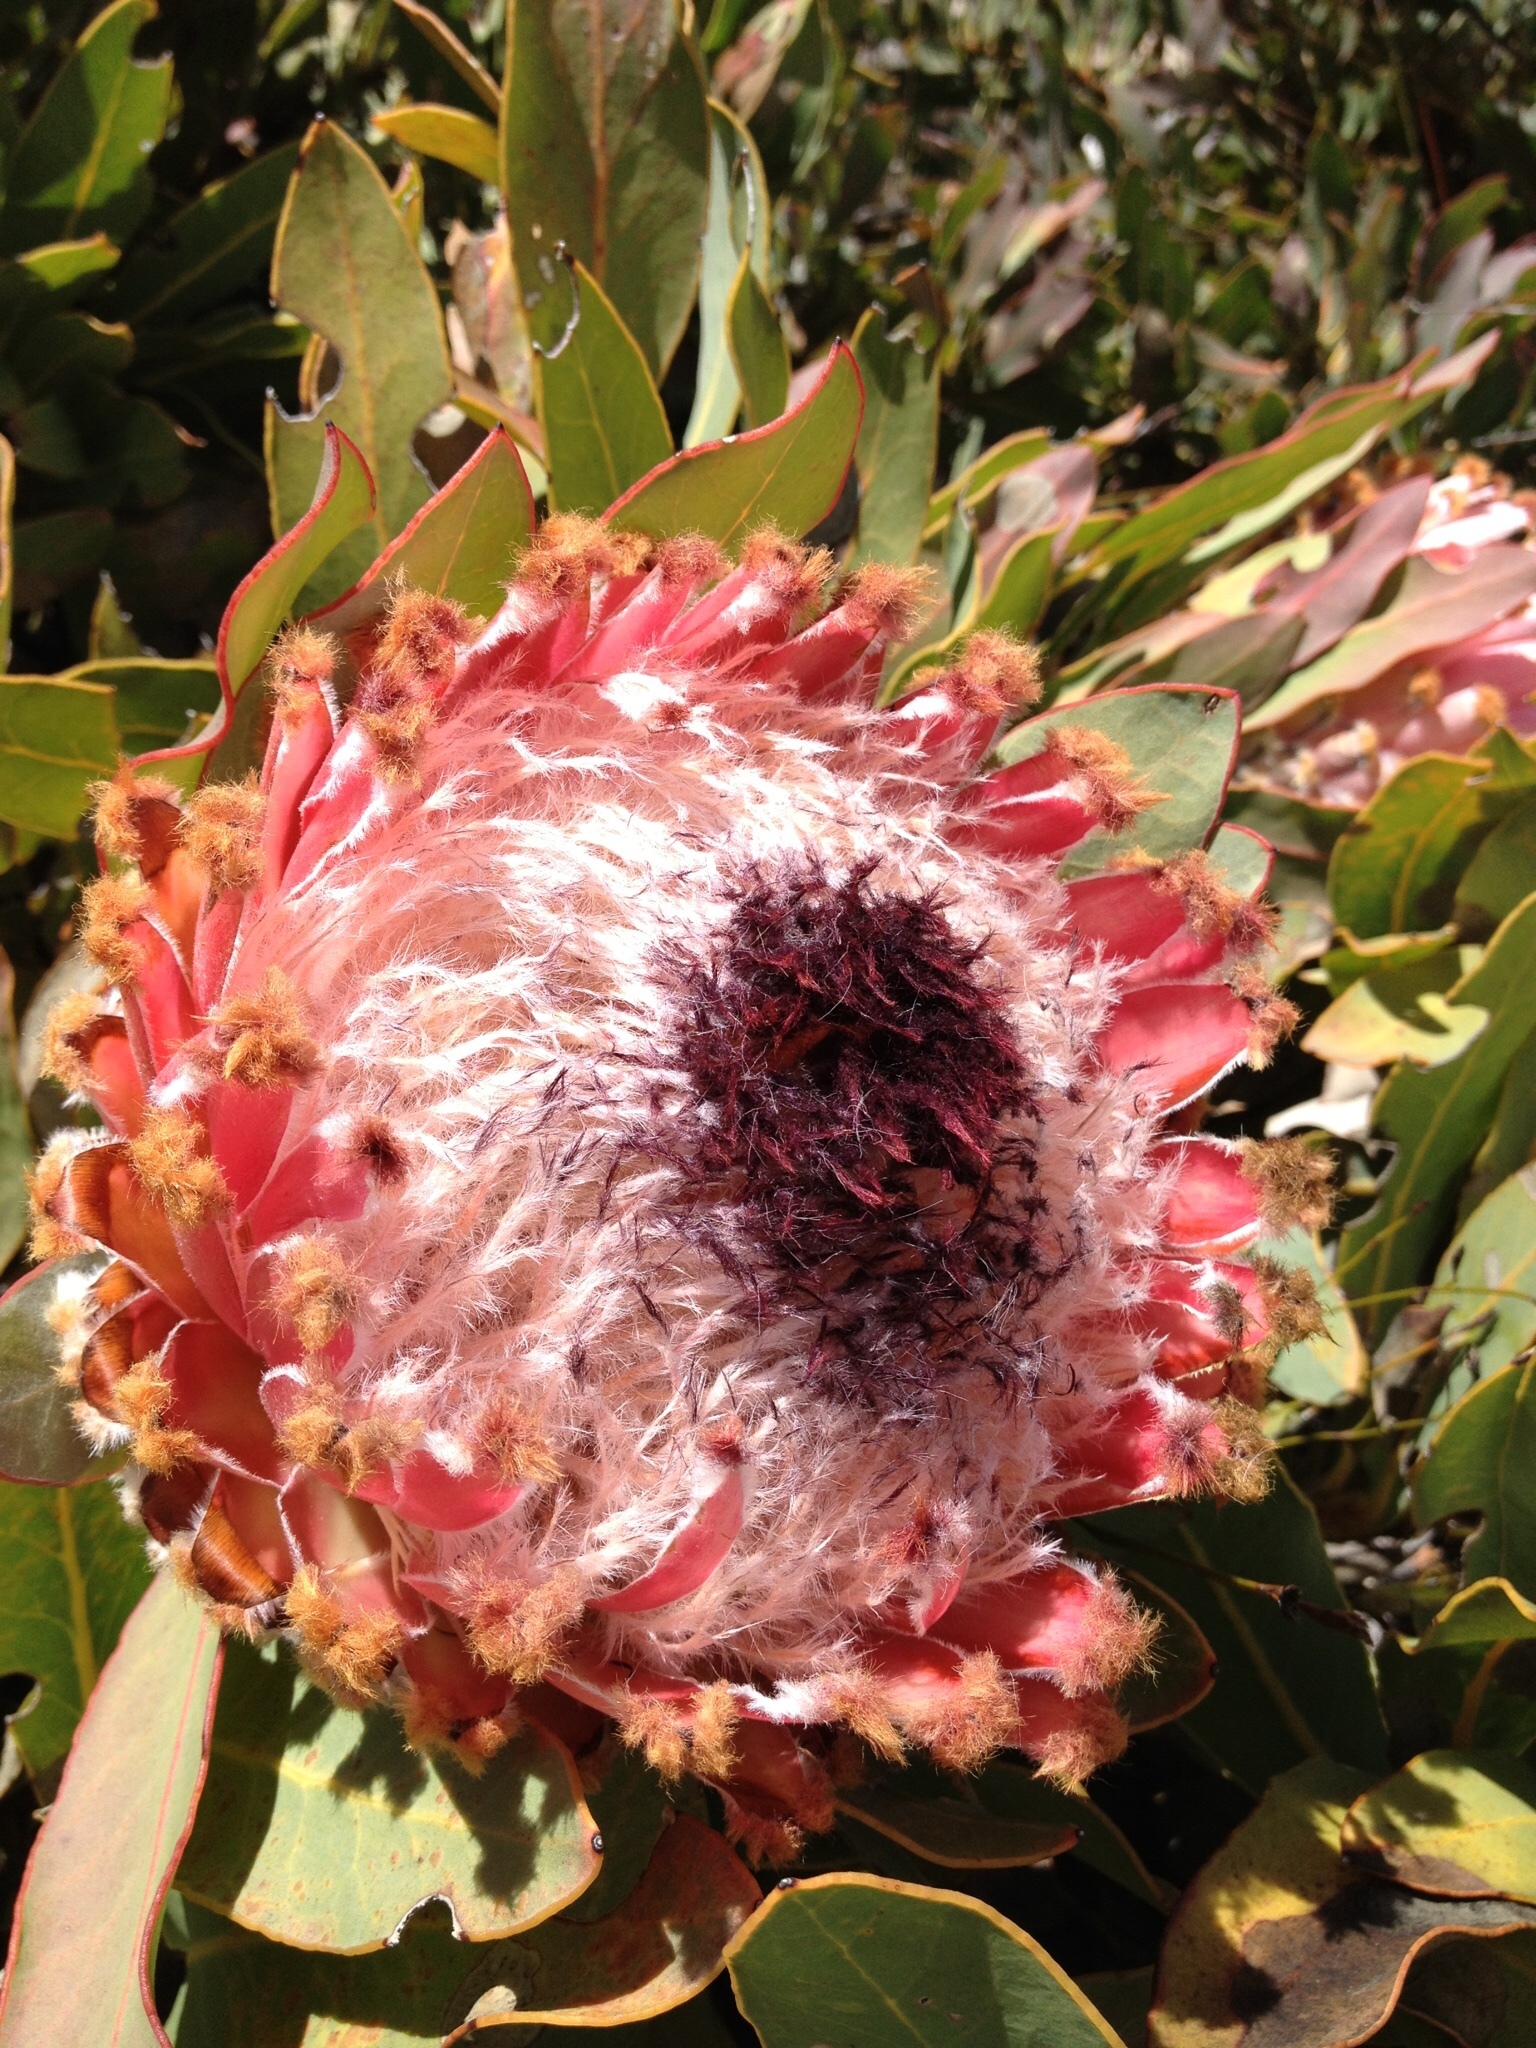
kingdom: Plantae
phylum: Tracheophyta
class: Magnoliopsida
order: Proteales
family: Proteaceae
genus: Protea
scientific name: Protea magnifica
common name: Bearded sugarbush
